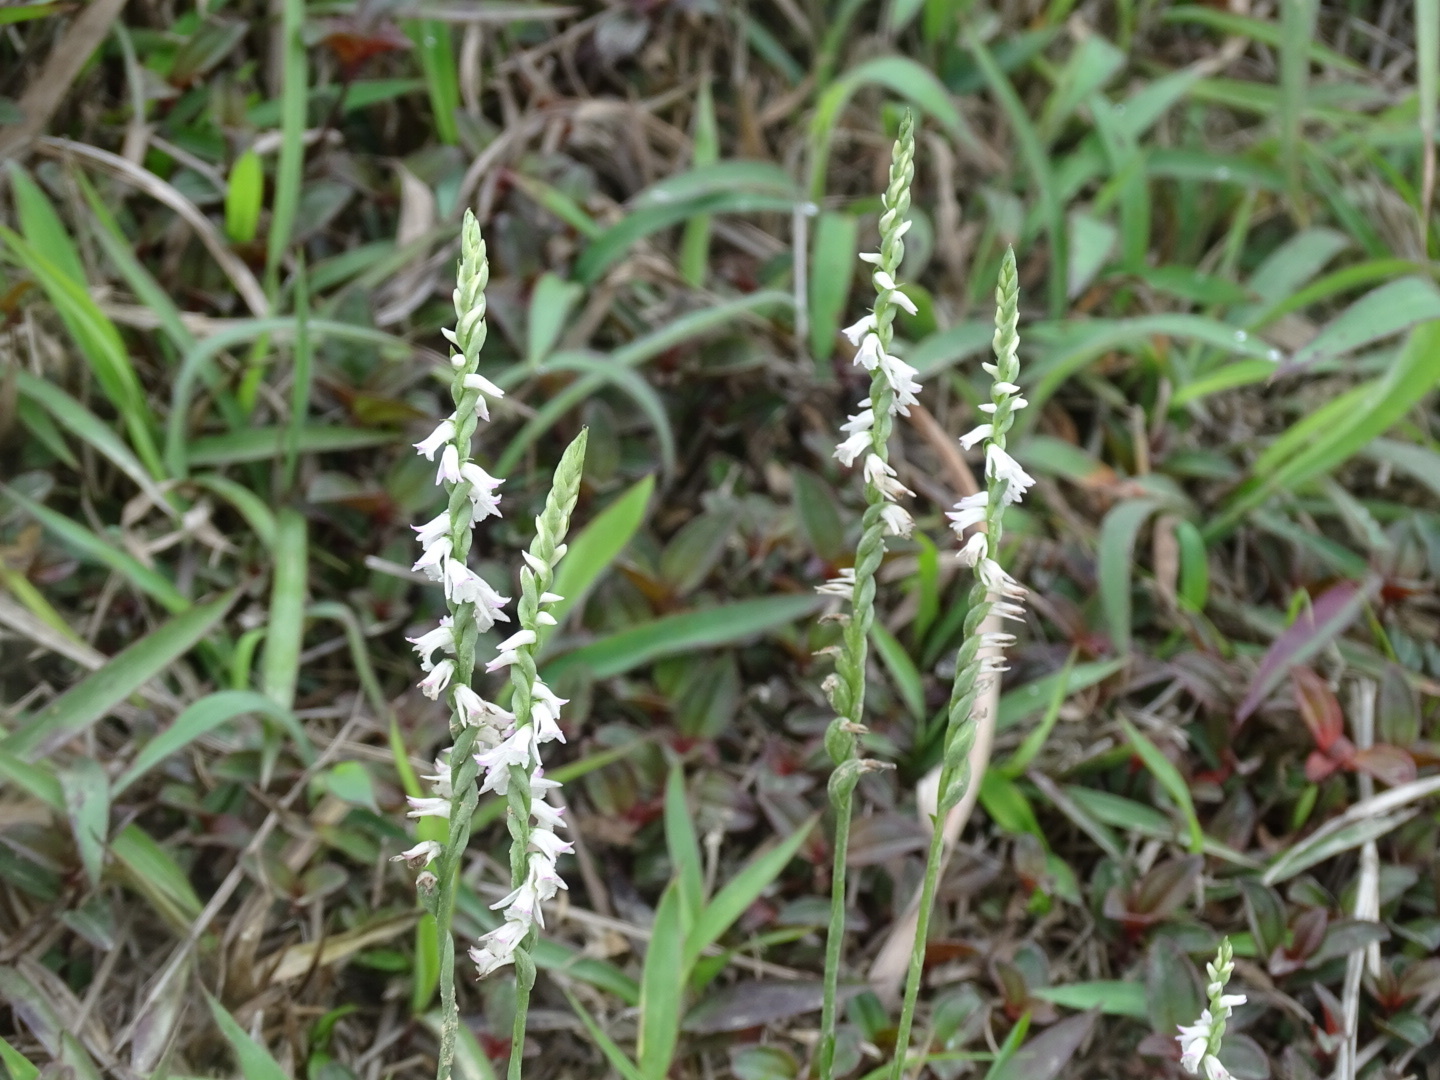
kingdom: Plantae
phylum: Tracheophyta
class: Liliopsida
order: Asparagales
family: Orchidaceae
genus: Spiranthes
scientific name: Spiranthes sinensis
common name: Chinese spiranthes
